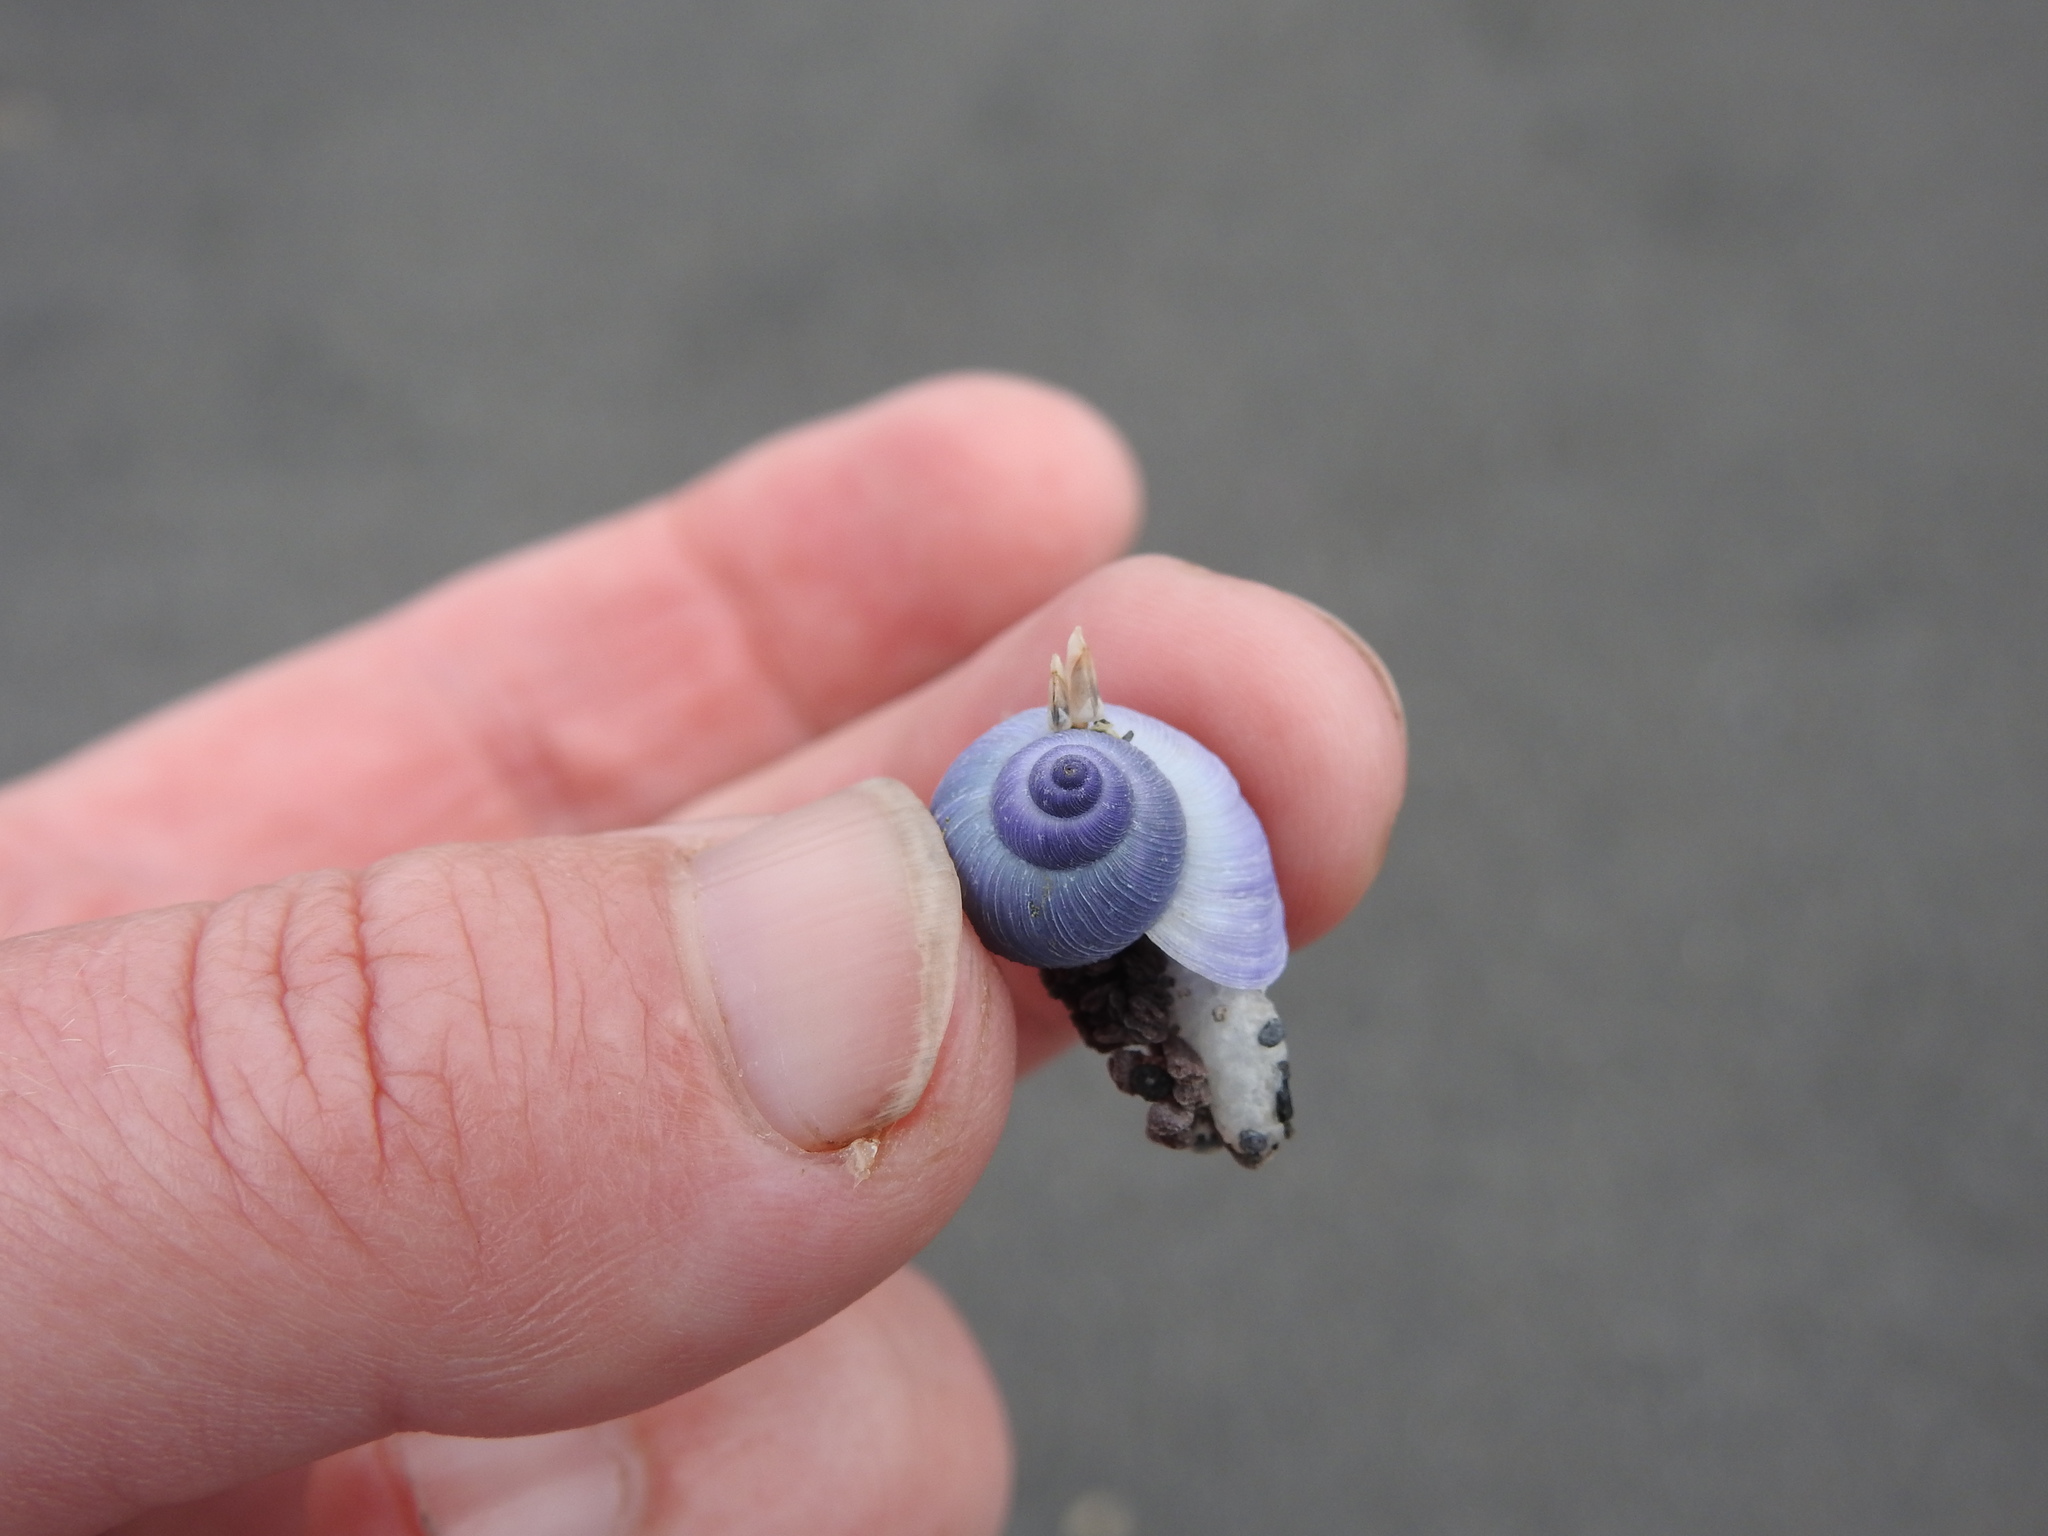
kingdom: Animalia
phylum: Mollusca
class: Gastropoda
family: Epitoniidae
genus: Janthina
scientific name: Janthina exigua
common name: Dwarf janthina
